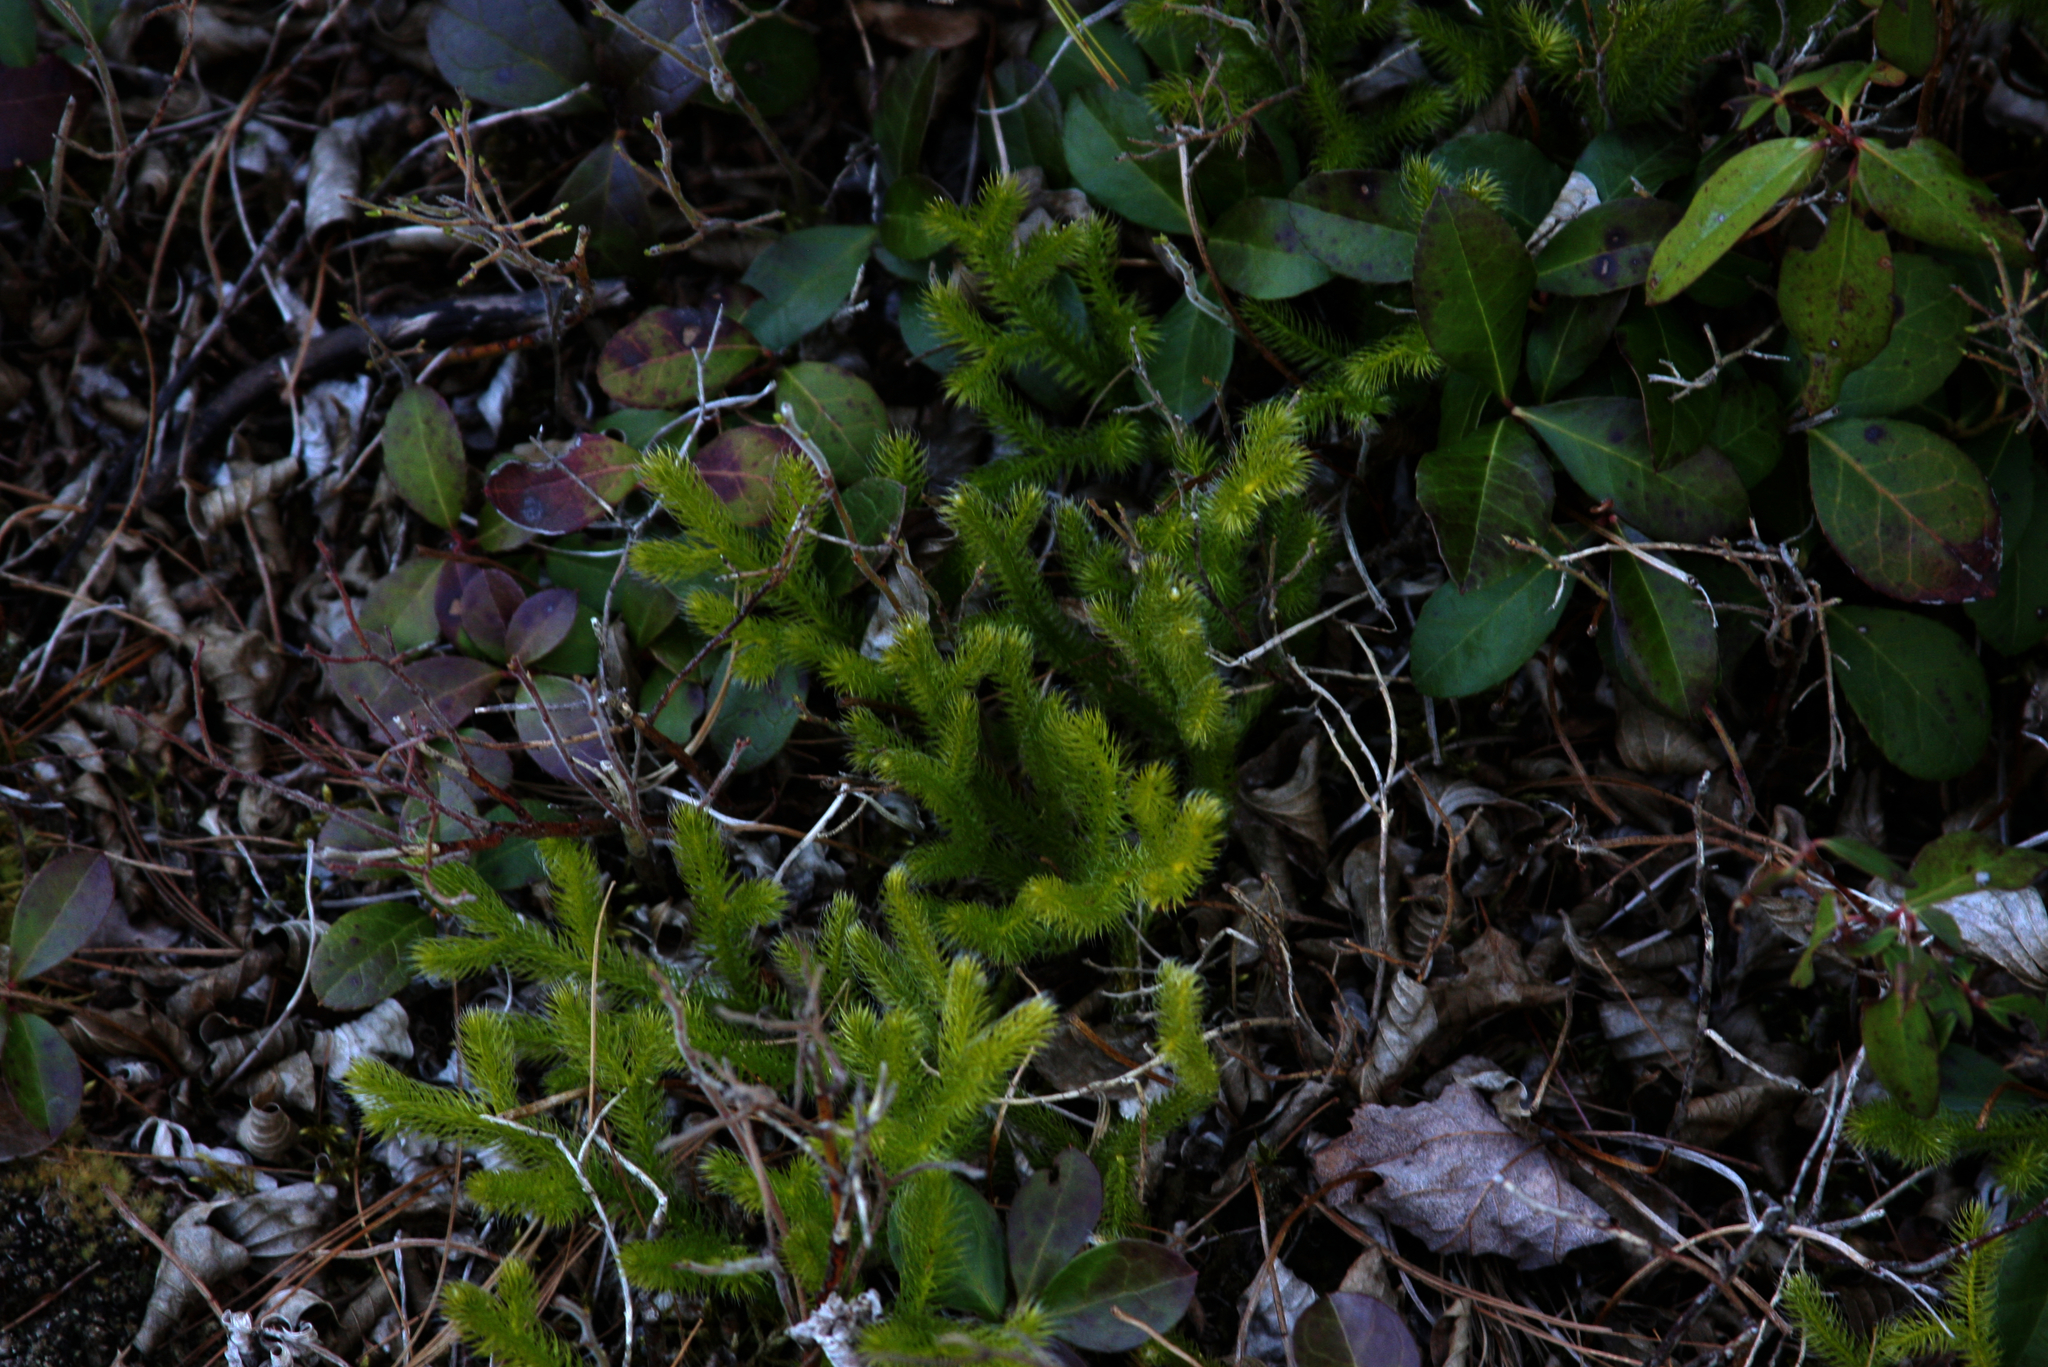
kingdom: Plantae
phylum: Tracheophyta
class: Lycopodiopsida
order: Lycopodiales
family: Lycopodiaceae
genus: Lycopodium
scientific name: Lycopodium clavatum
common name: Stag's-horn clubmoss
